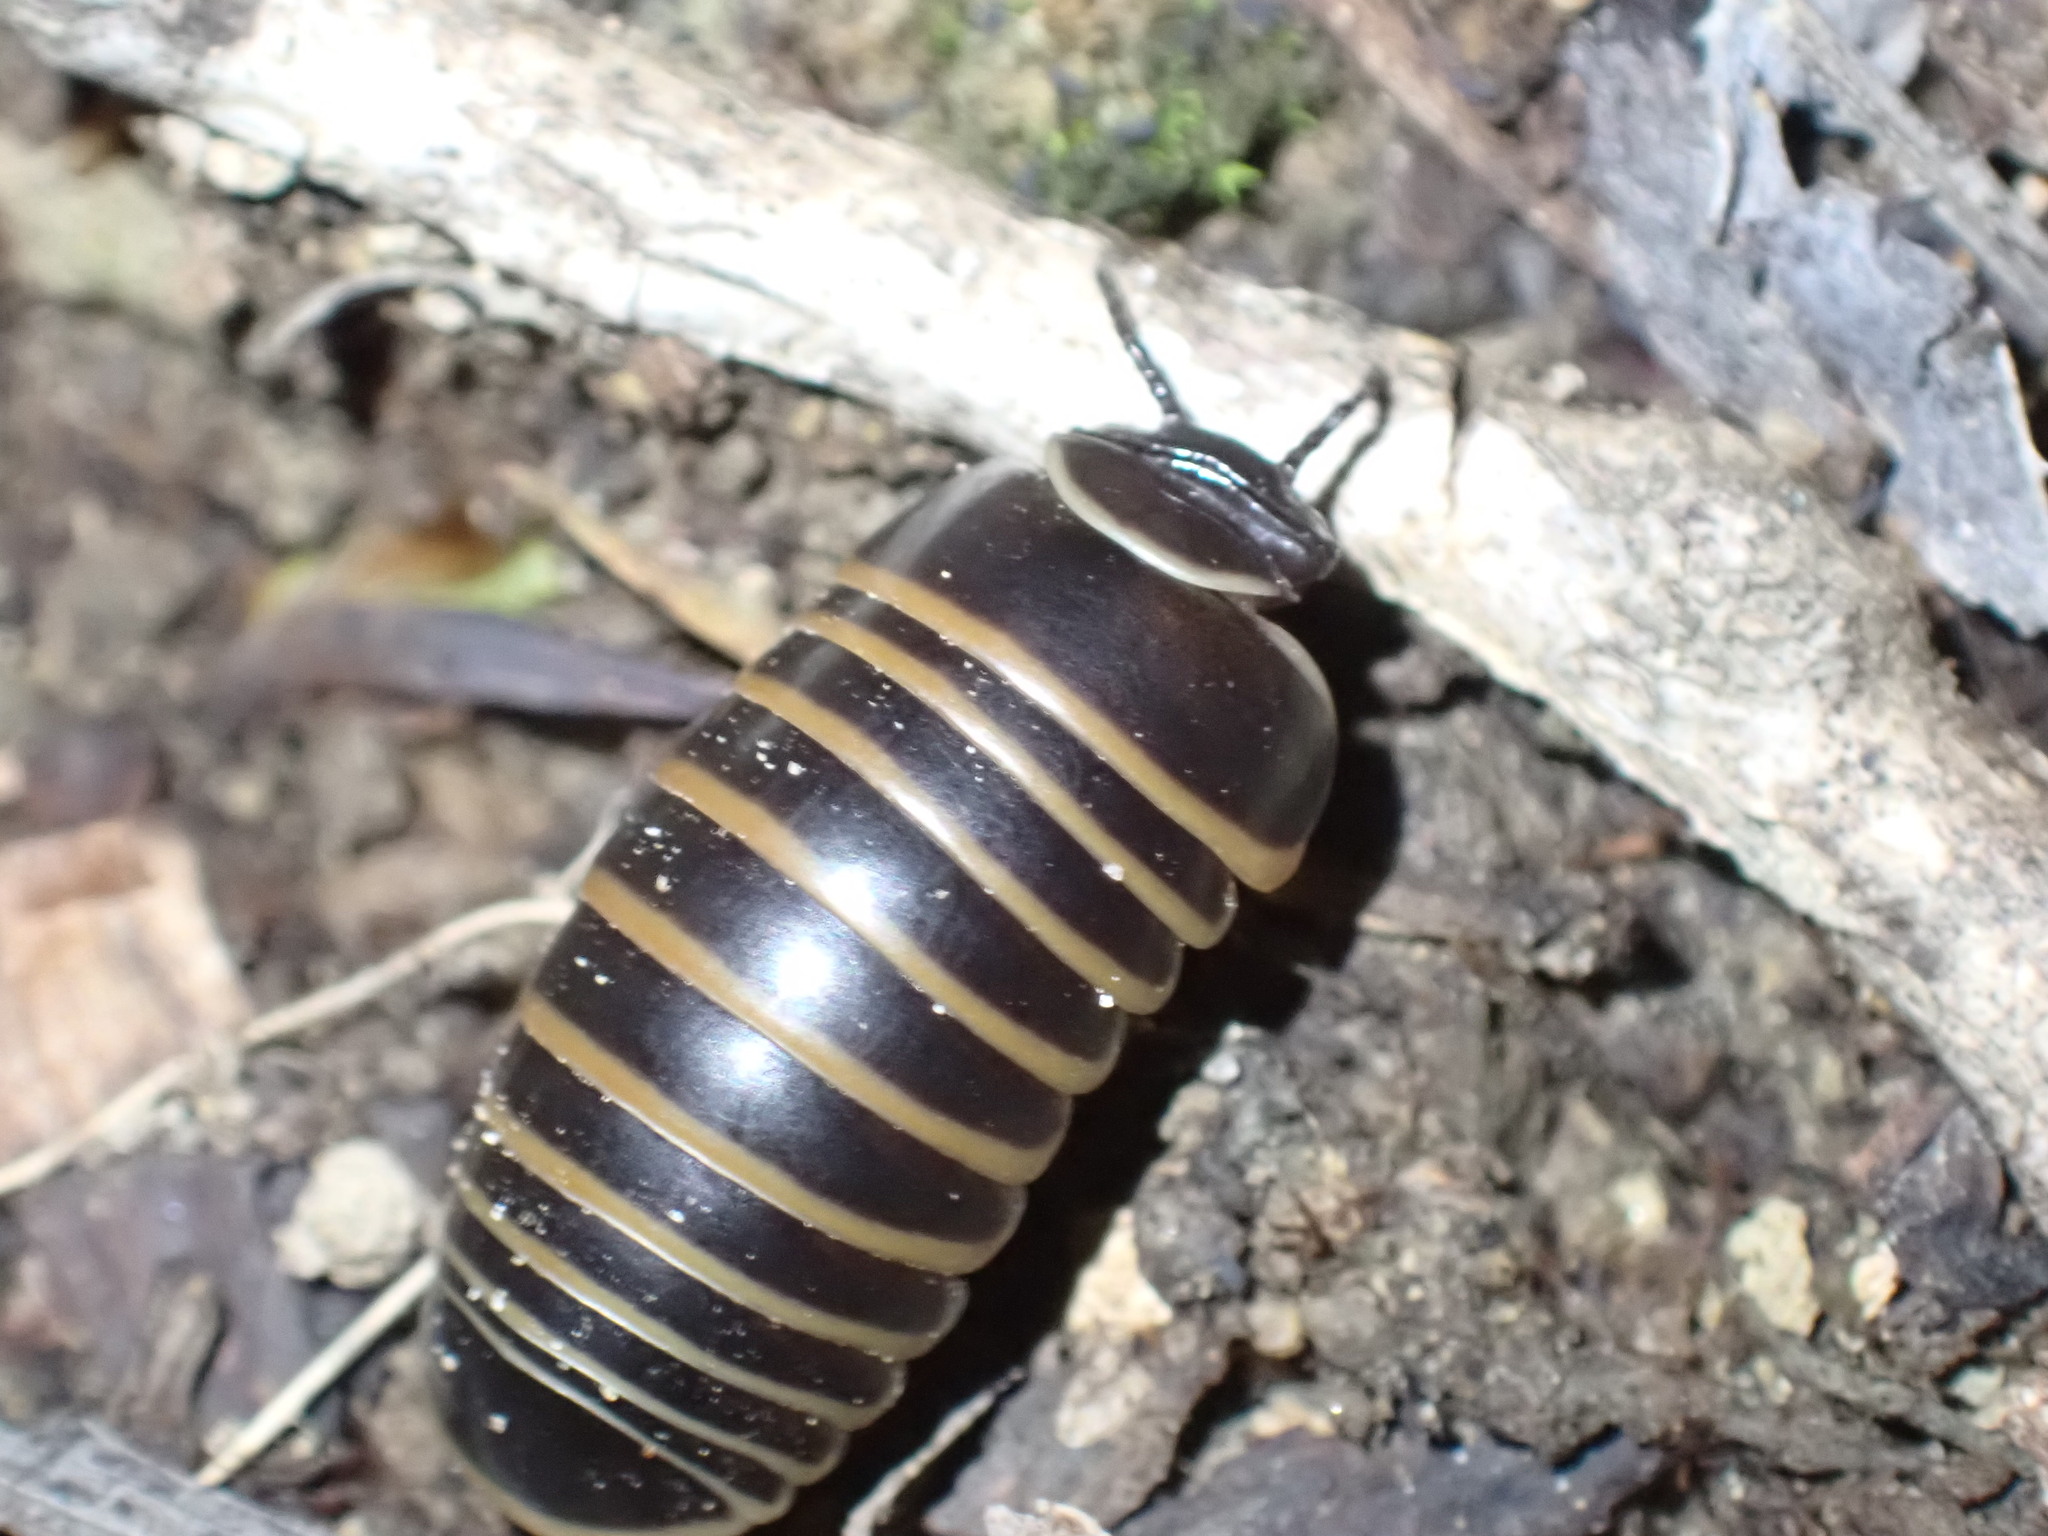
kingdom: Animalia
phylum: Arthropoda
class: Diplopoda
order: Glomerida
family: Glomeridae
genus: Glomeris
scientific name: Glomeris marginata
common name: Bordered pill millipede
